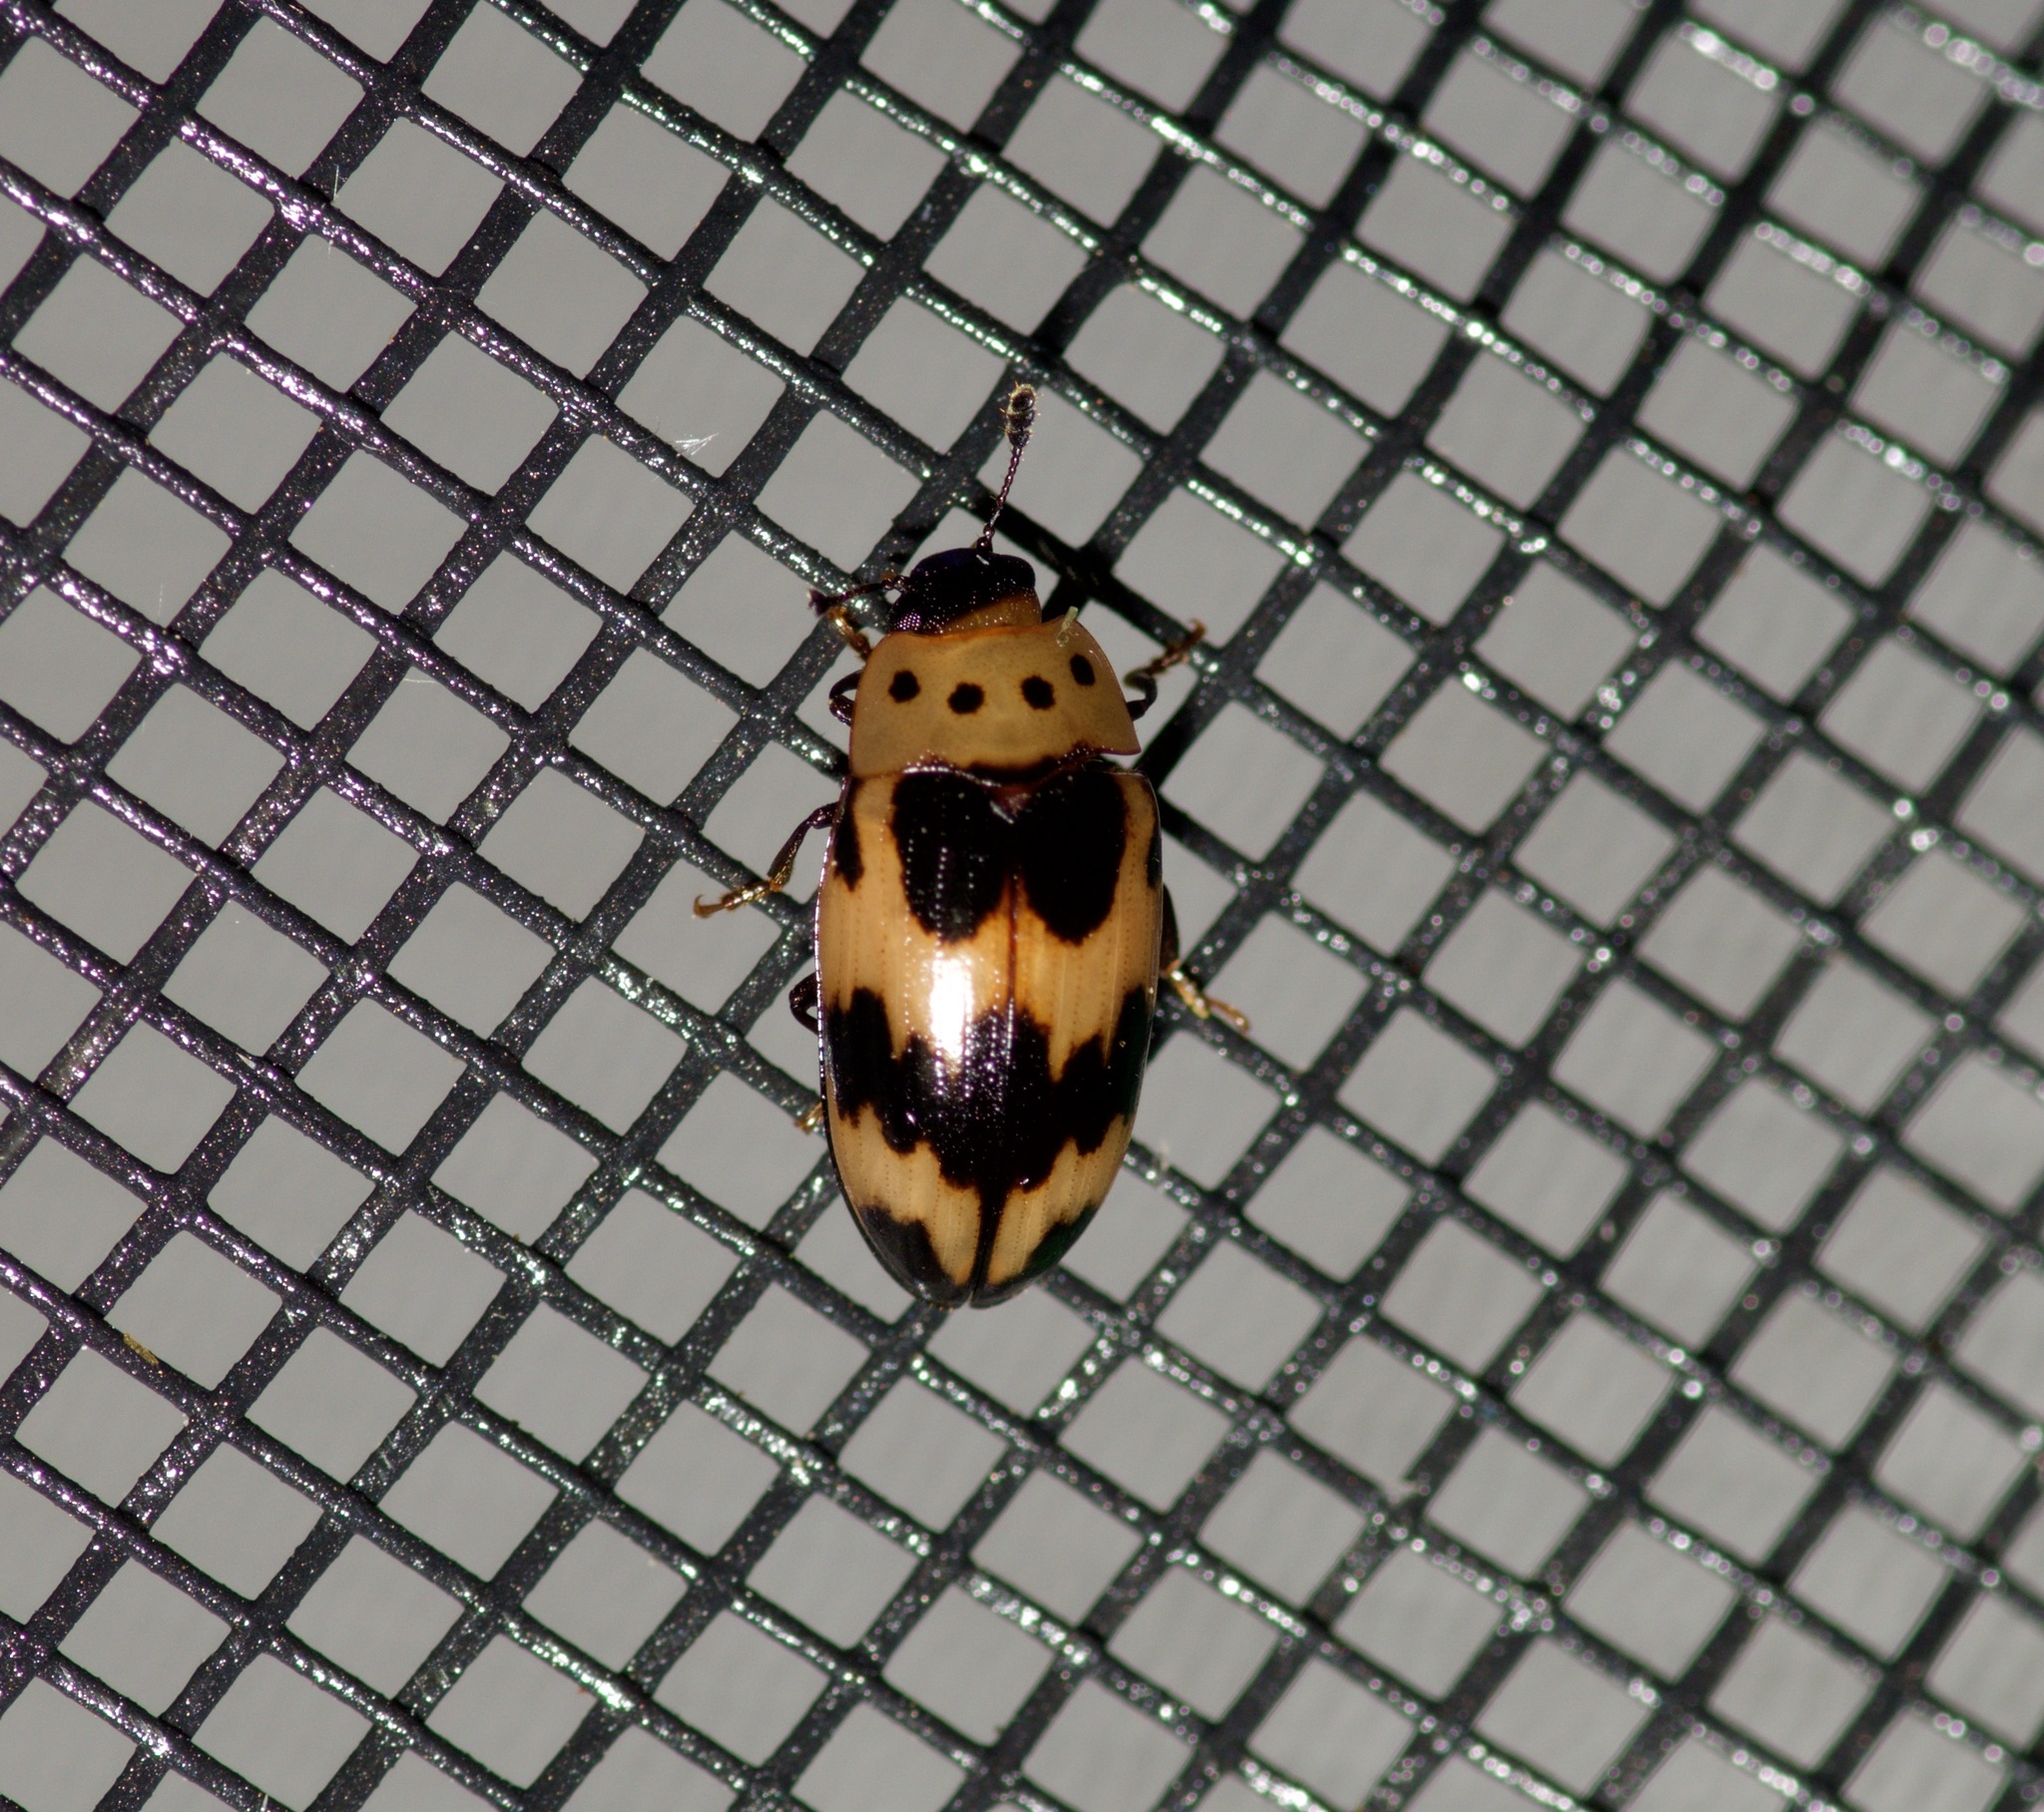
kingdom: Animalia
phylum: Arthropoda
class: Insecta
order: Coleoptera
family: Erotylidae
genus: Ischyrus
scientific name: Ischyrus quadripunctatus
